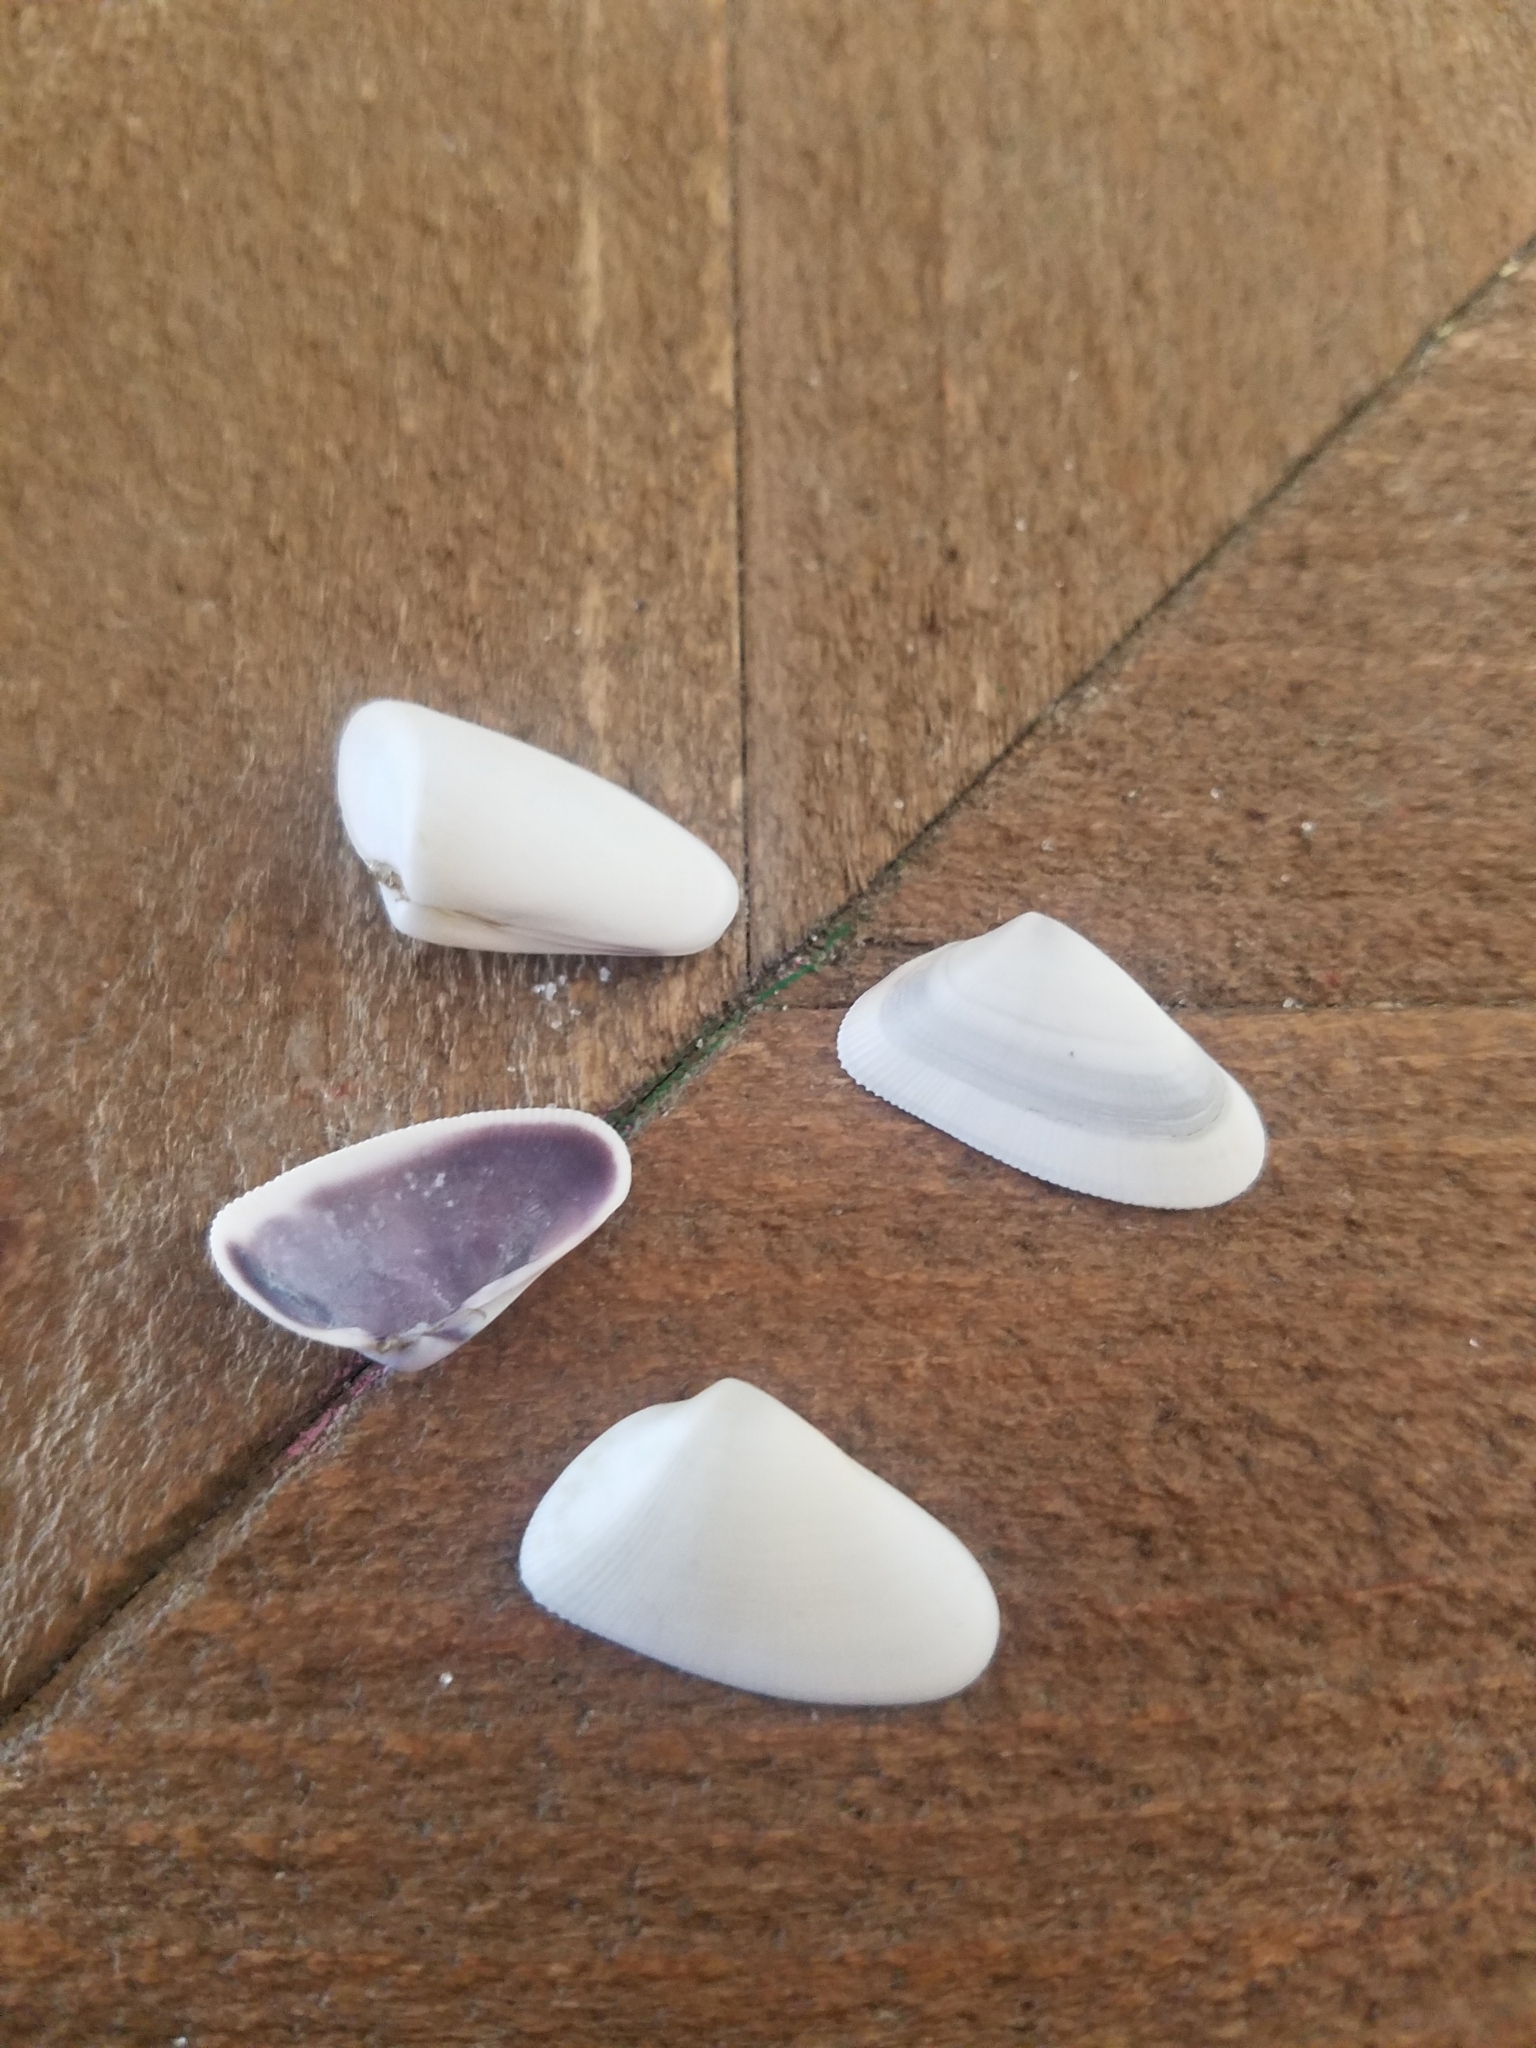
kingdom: Animalia
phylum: Mollusca
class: Bivalvia
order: Cardiida
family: Donacidae
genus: Donax
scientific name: Donax variabilis
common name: Butterfly shell
